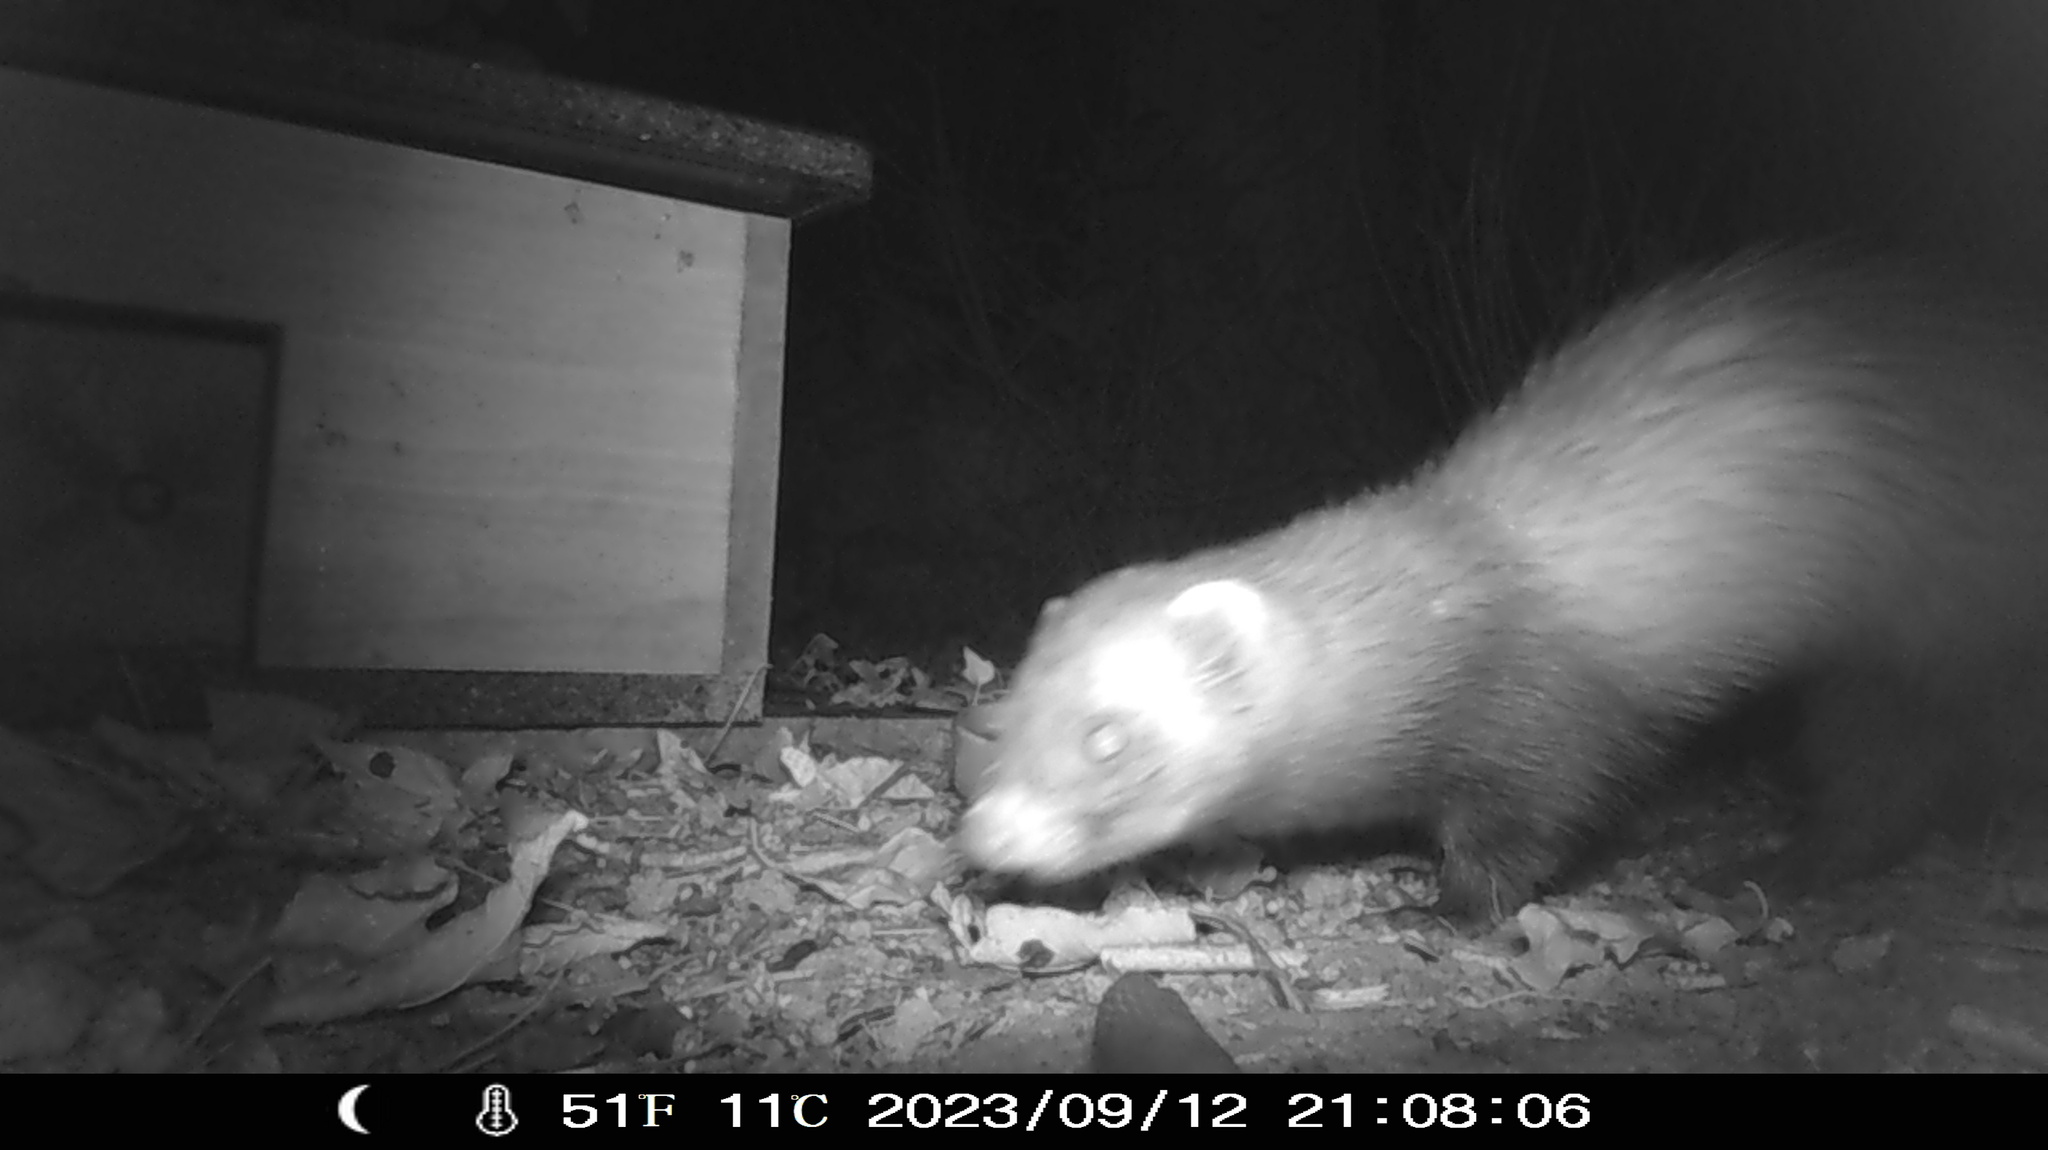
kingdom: Animalia
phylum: Chordata
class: Mammalia
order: Carnivora
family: Mustelidae
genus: Mustela
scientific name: Mustela putorius
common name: European polecat
